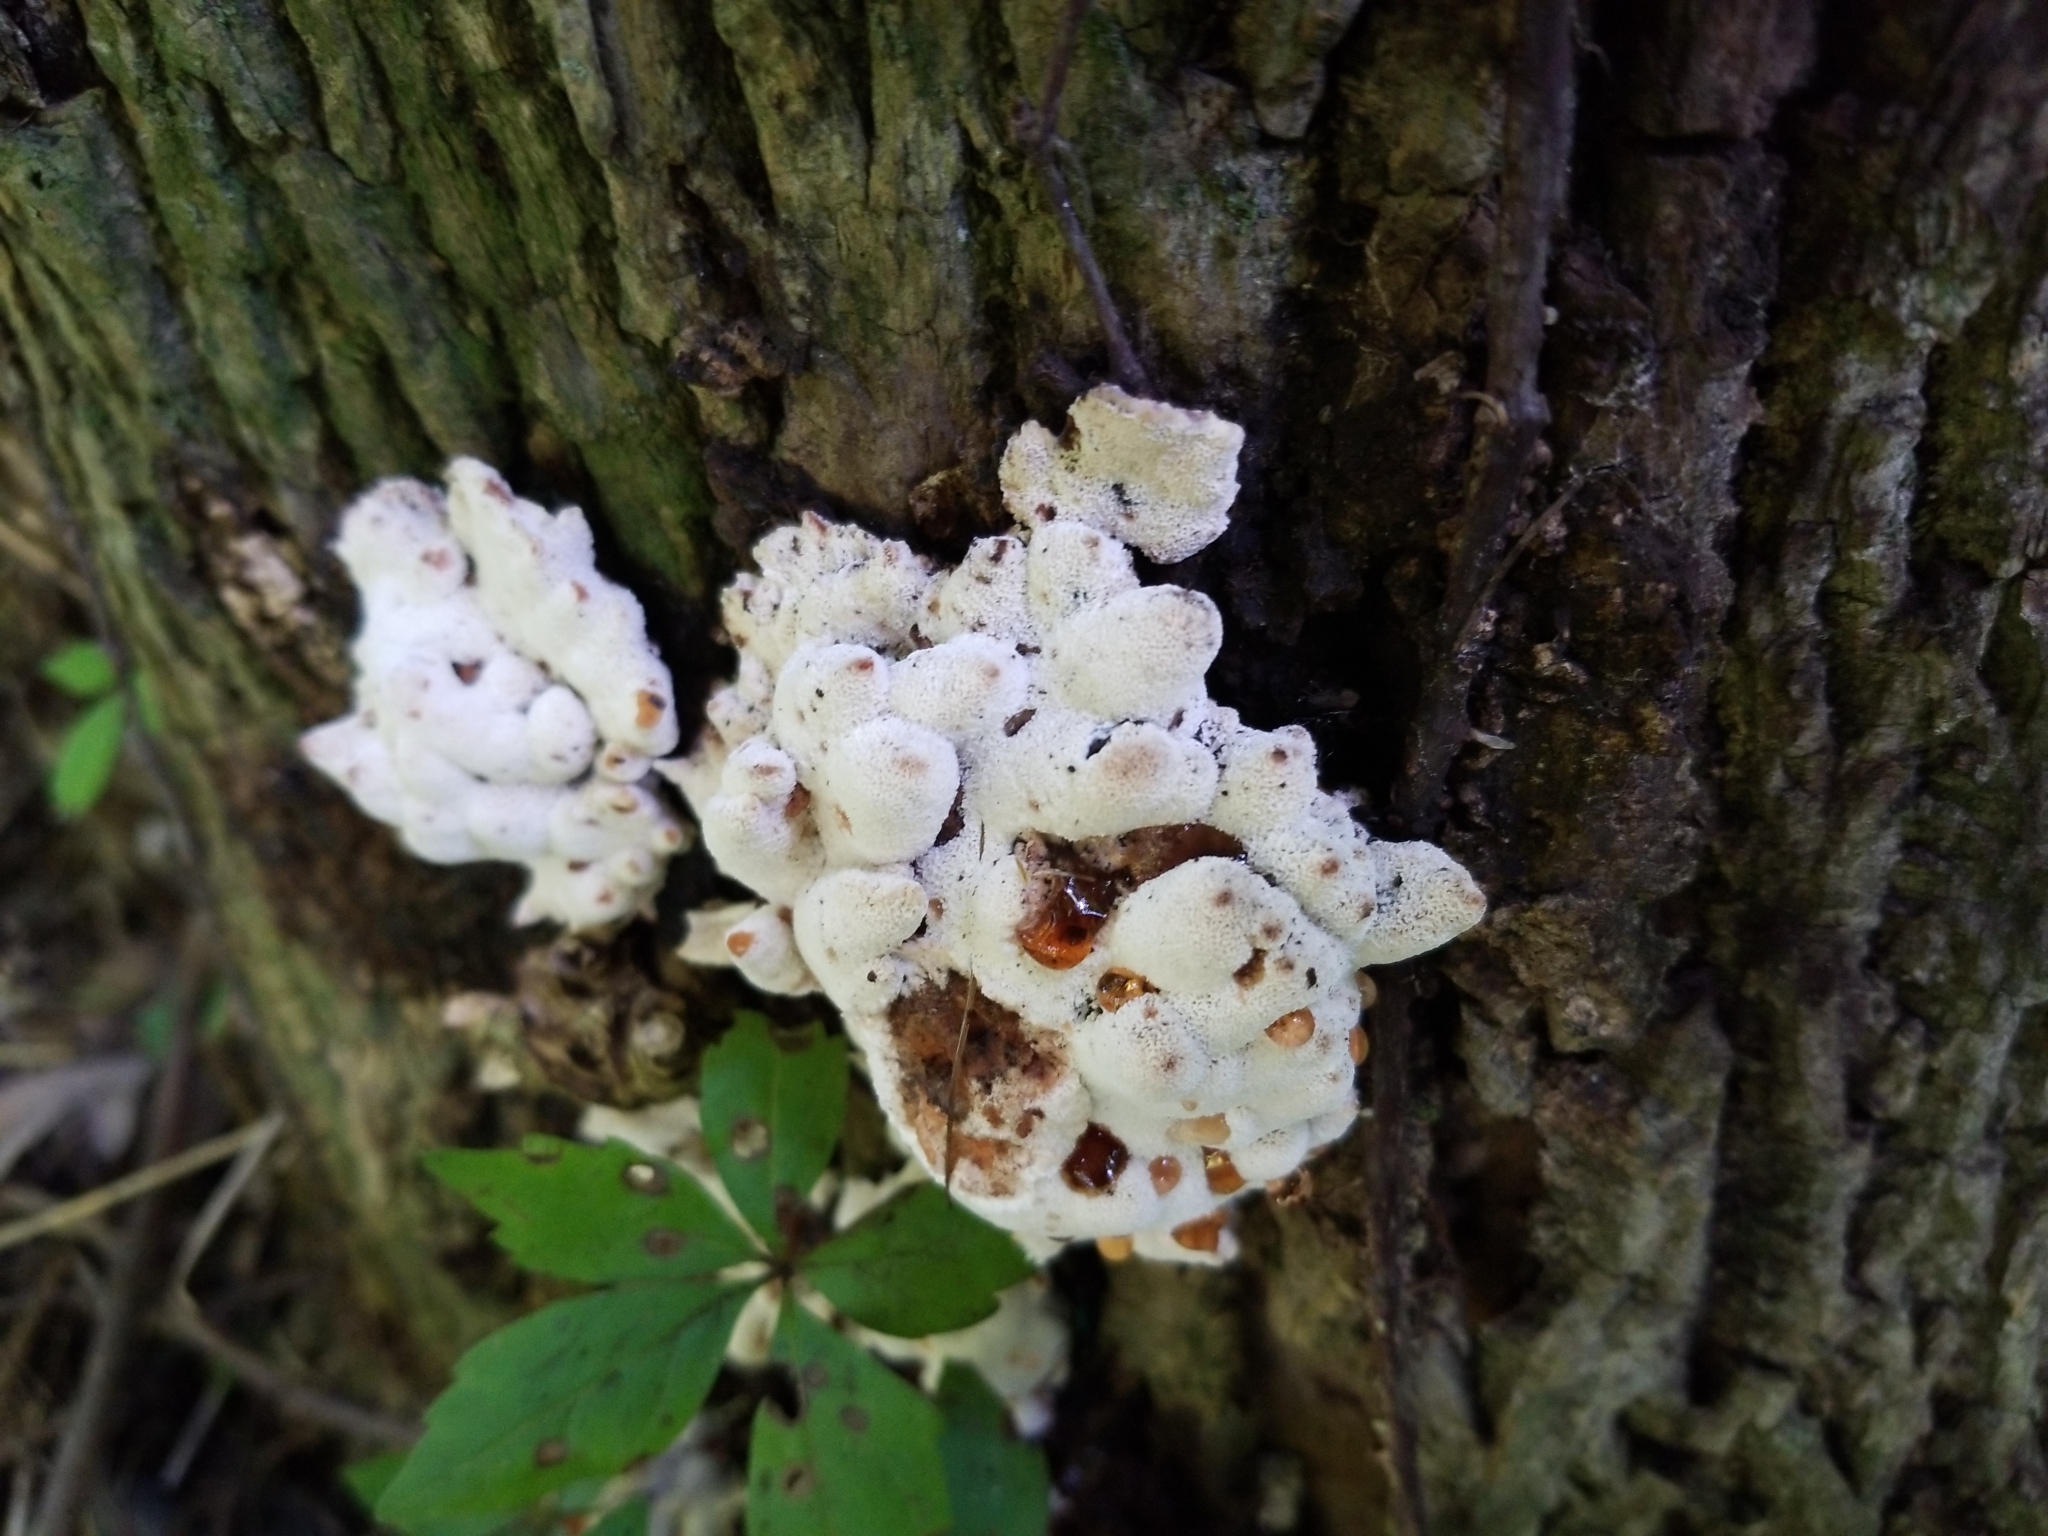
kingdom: Fungi
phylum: Basidiomycota
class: Agaricomycetes
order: Polyporales
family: Podoscyphaceae
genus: Abortiporus
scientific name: Abortiporus biennis
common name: Blushing rosette
